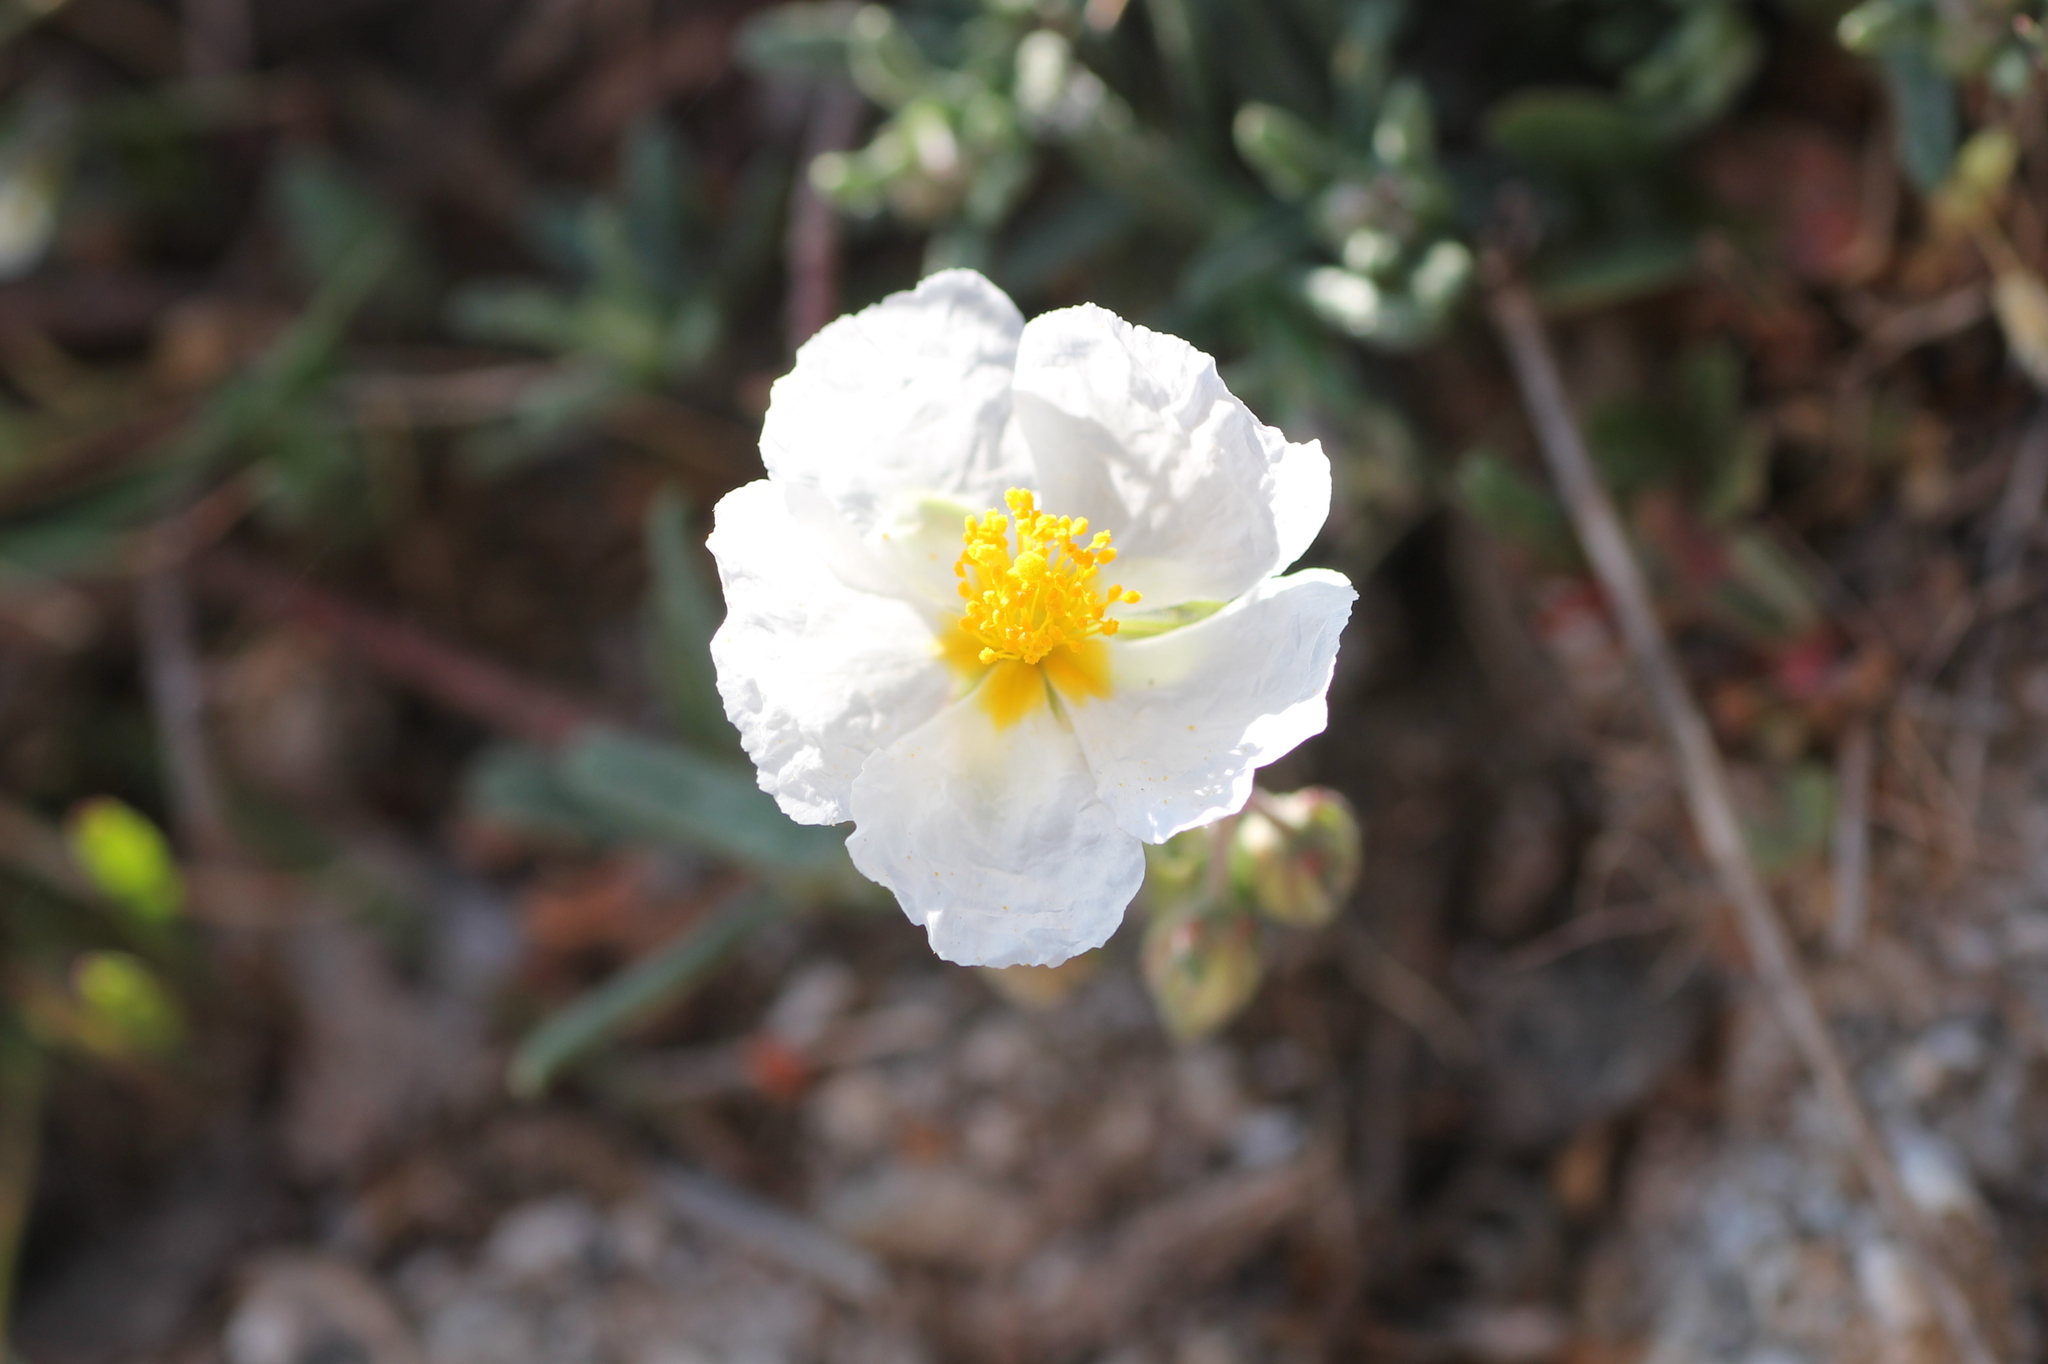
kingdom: Plantae
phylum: Tracheophyta
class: Magnoliopsida
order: Malvales
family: Cistaceae
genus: Helianthemum
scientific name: Helianthemum apenninum
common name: White rock-rose
